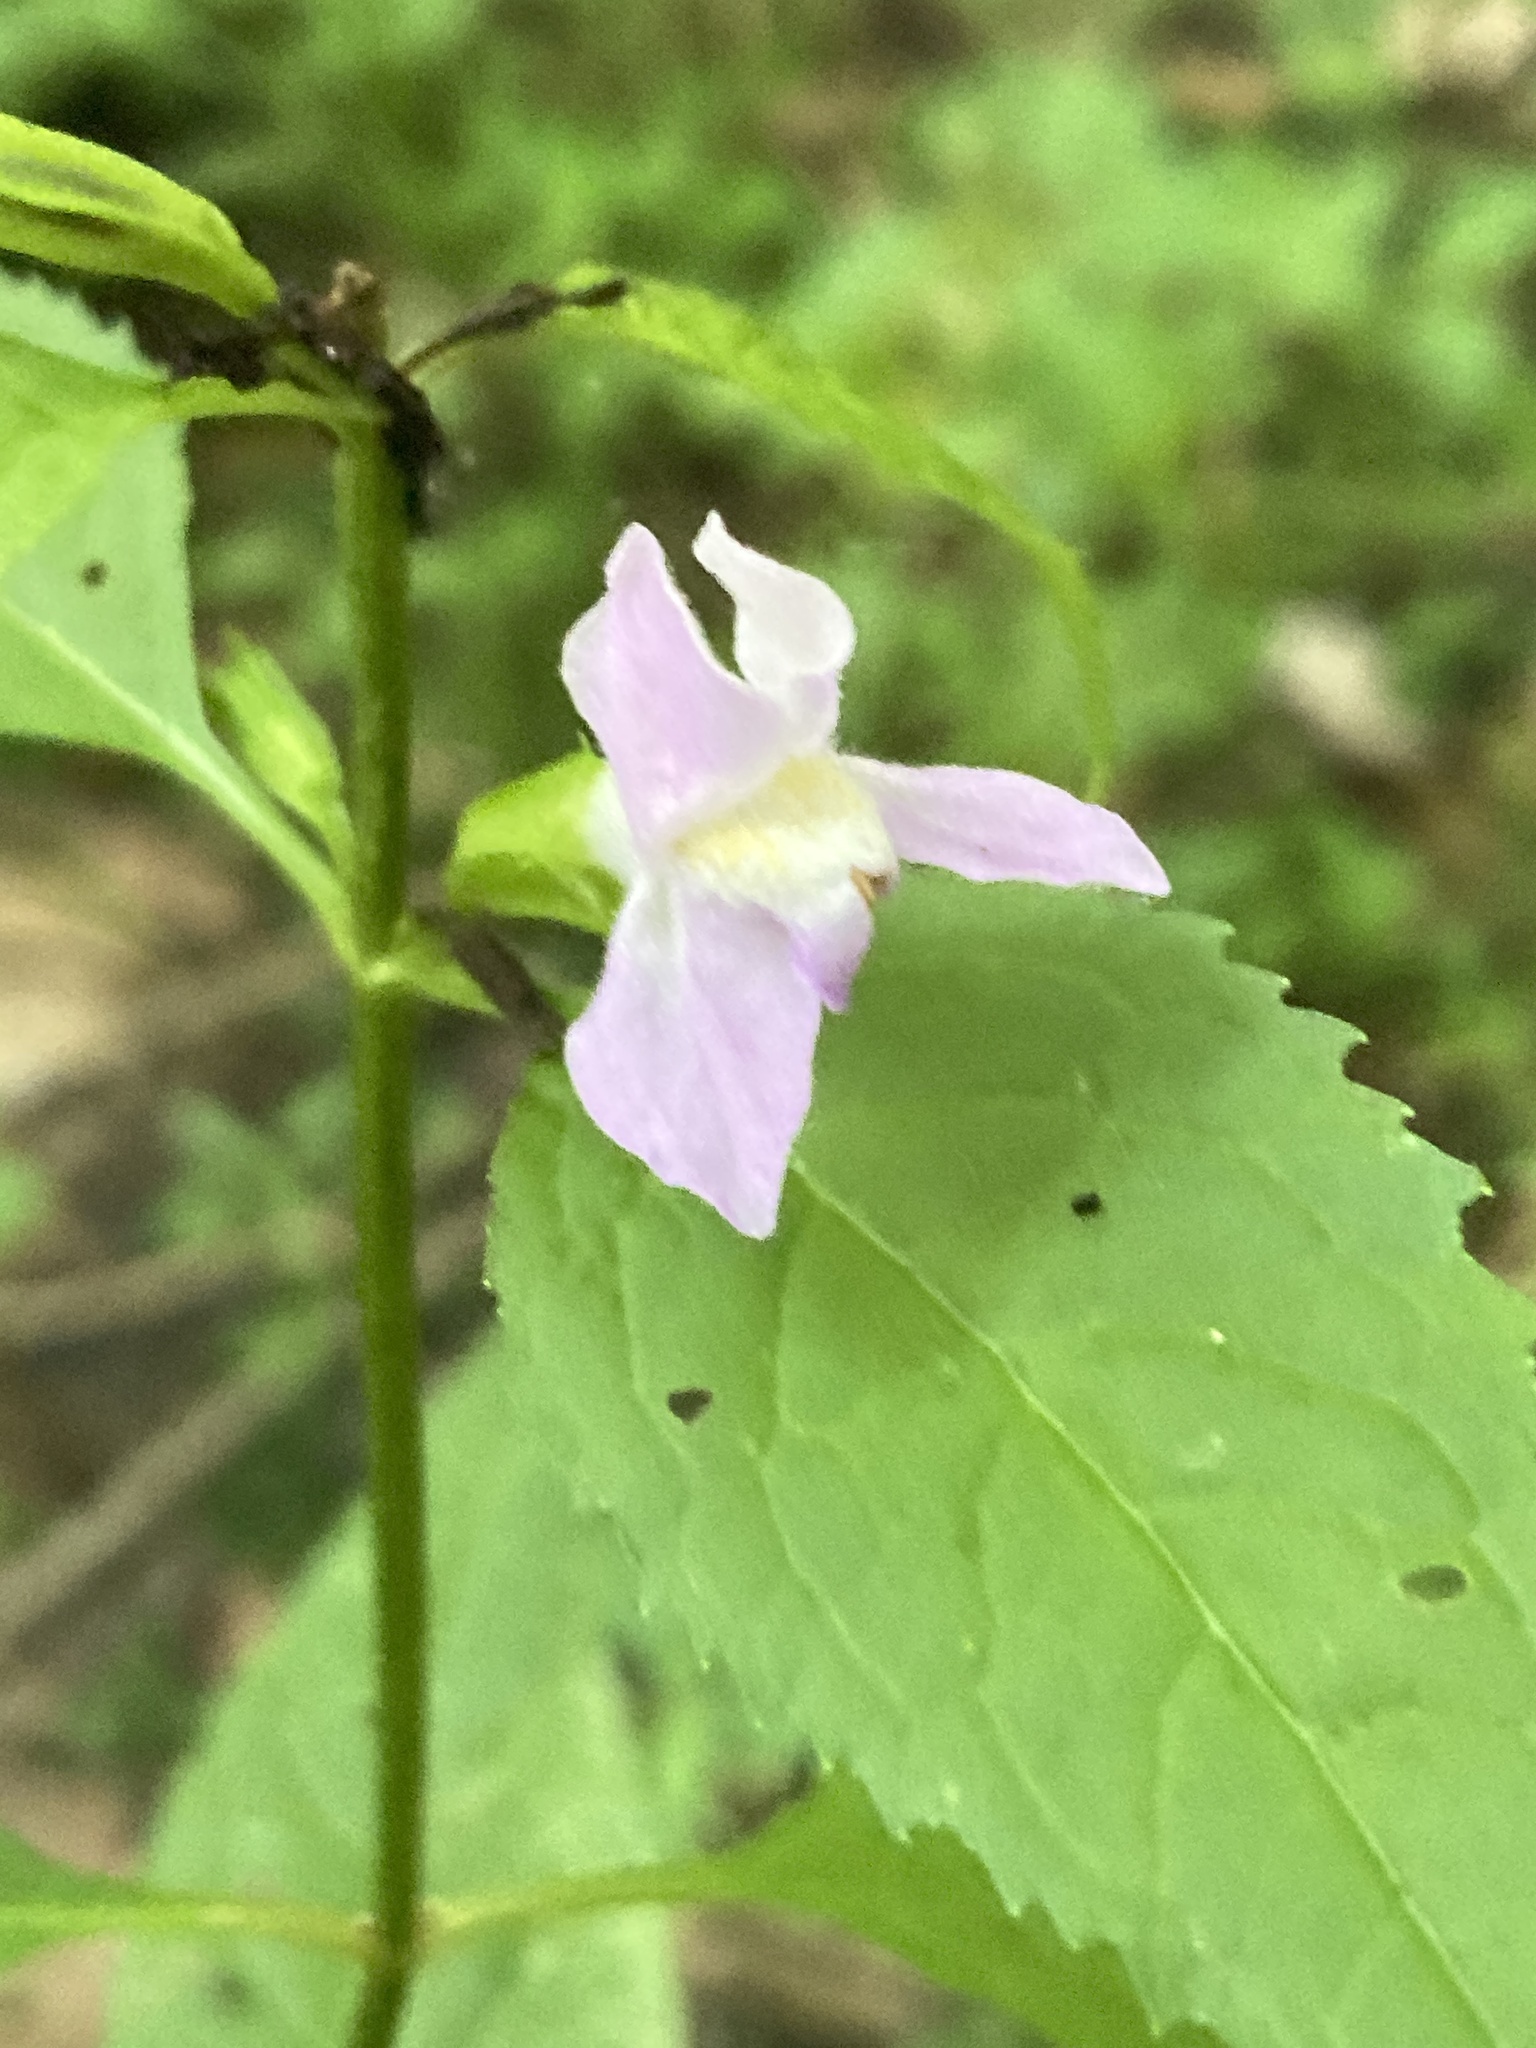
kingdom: Plantae
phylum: Tracheophyta
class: Magnoliopsida
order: Lamiales
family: Phrymaceae
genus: Mimulus
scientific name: Mimulus alatus
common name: Sharp-wing monkey-flower
